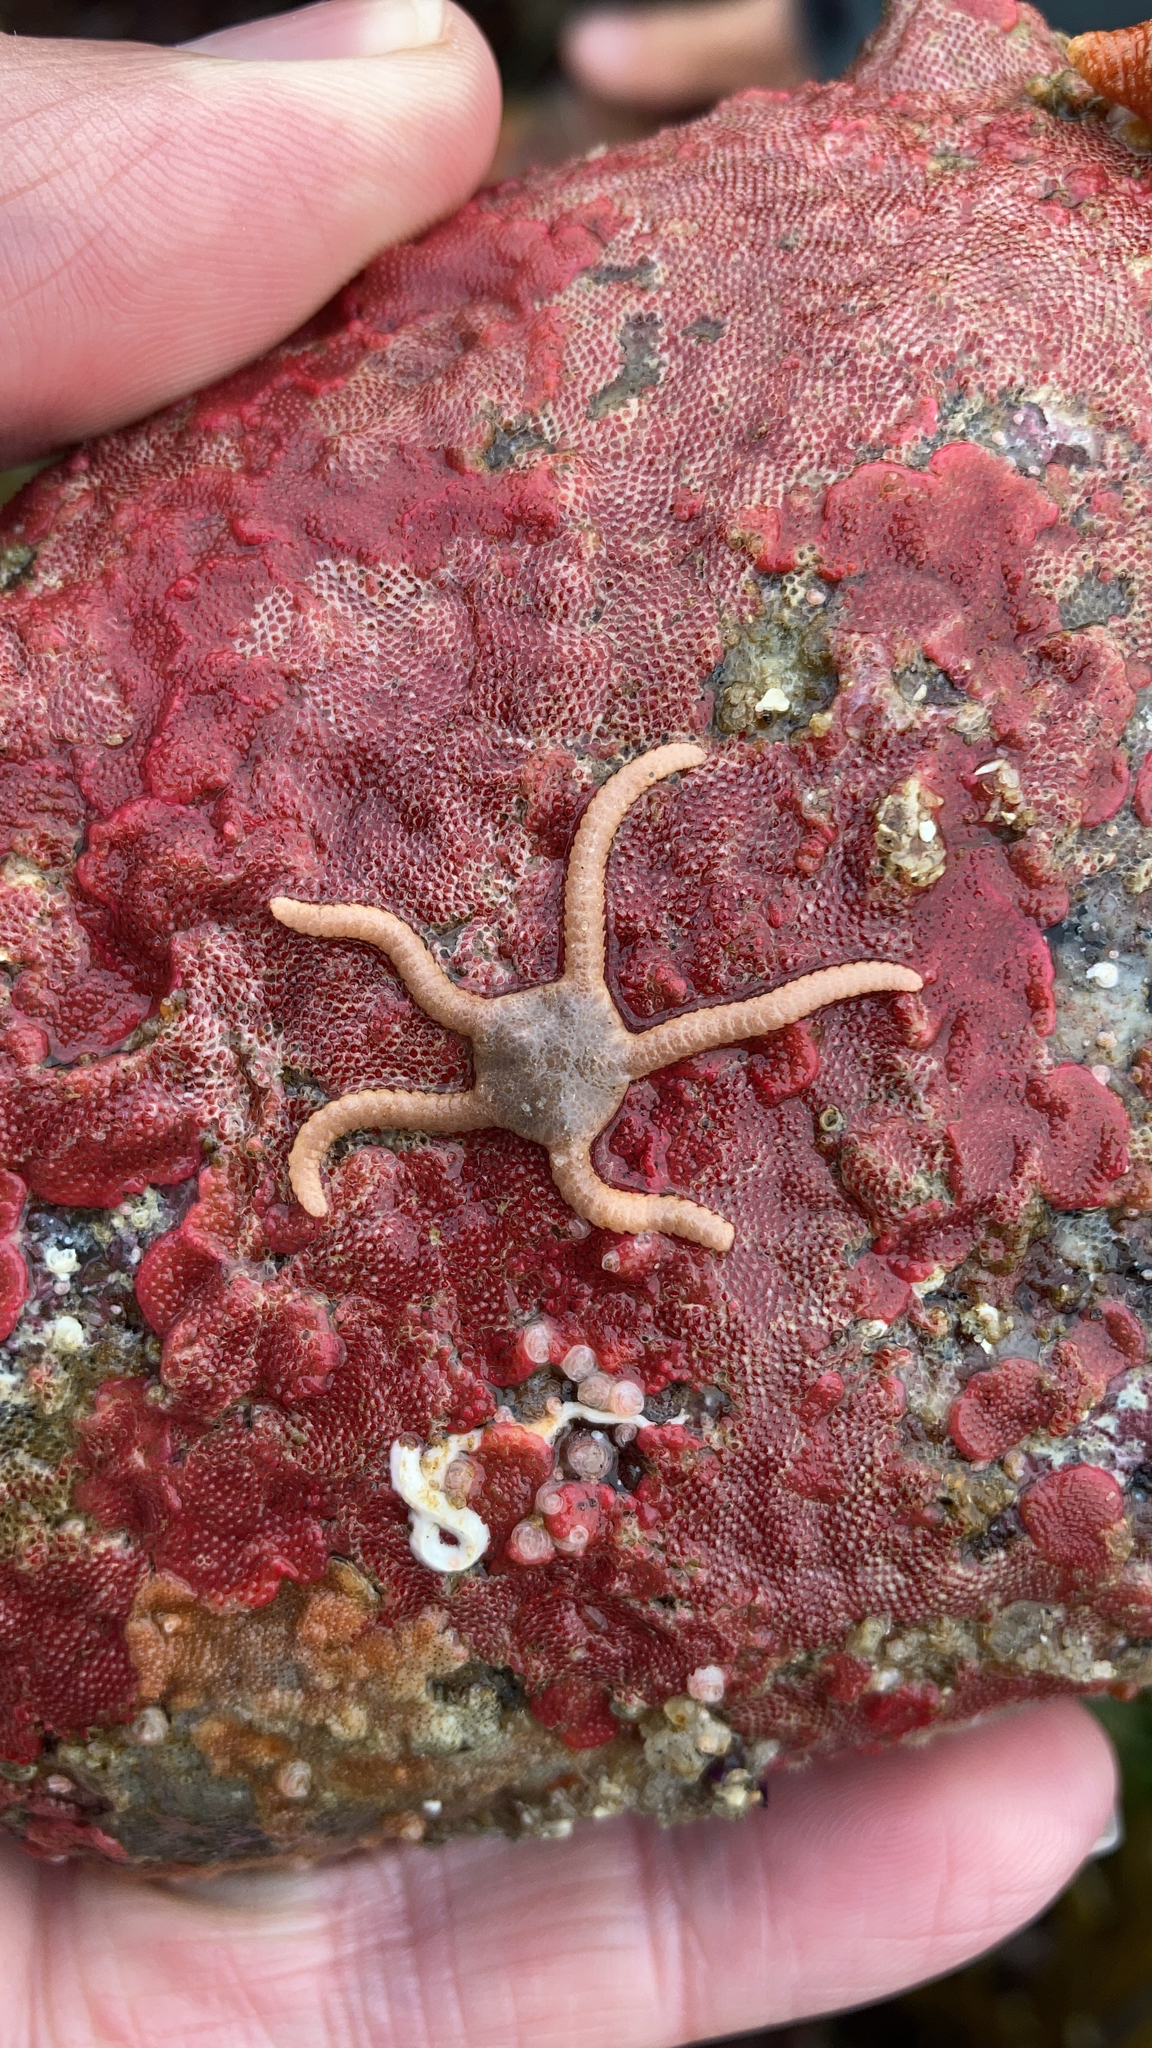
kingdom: Animalia
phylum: Echinodermata
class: Ophiuroidea
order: Amphilepidida
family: Hemieuryalidae
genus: Ophioplocus
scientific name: Ophioplocus esmarki
